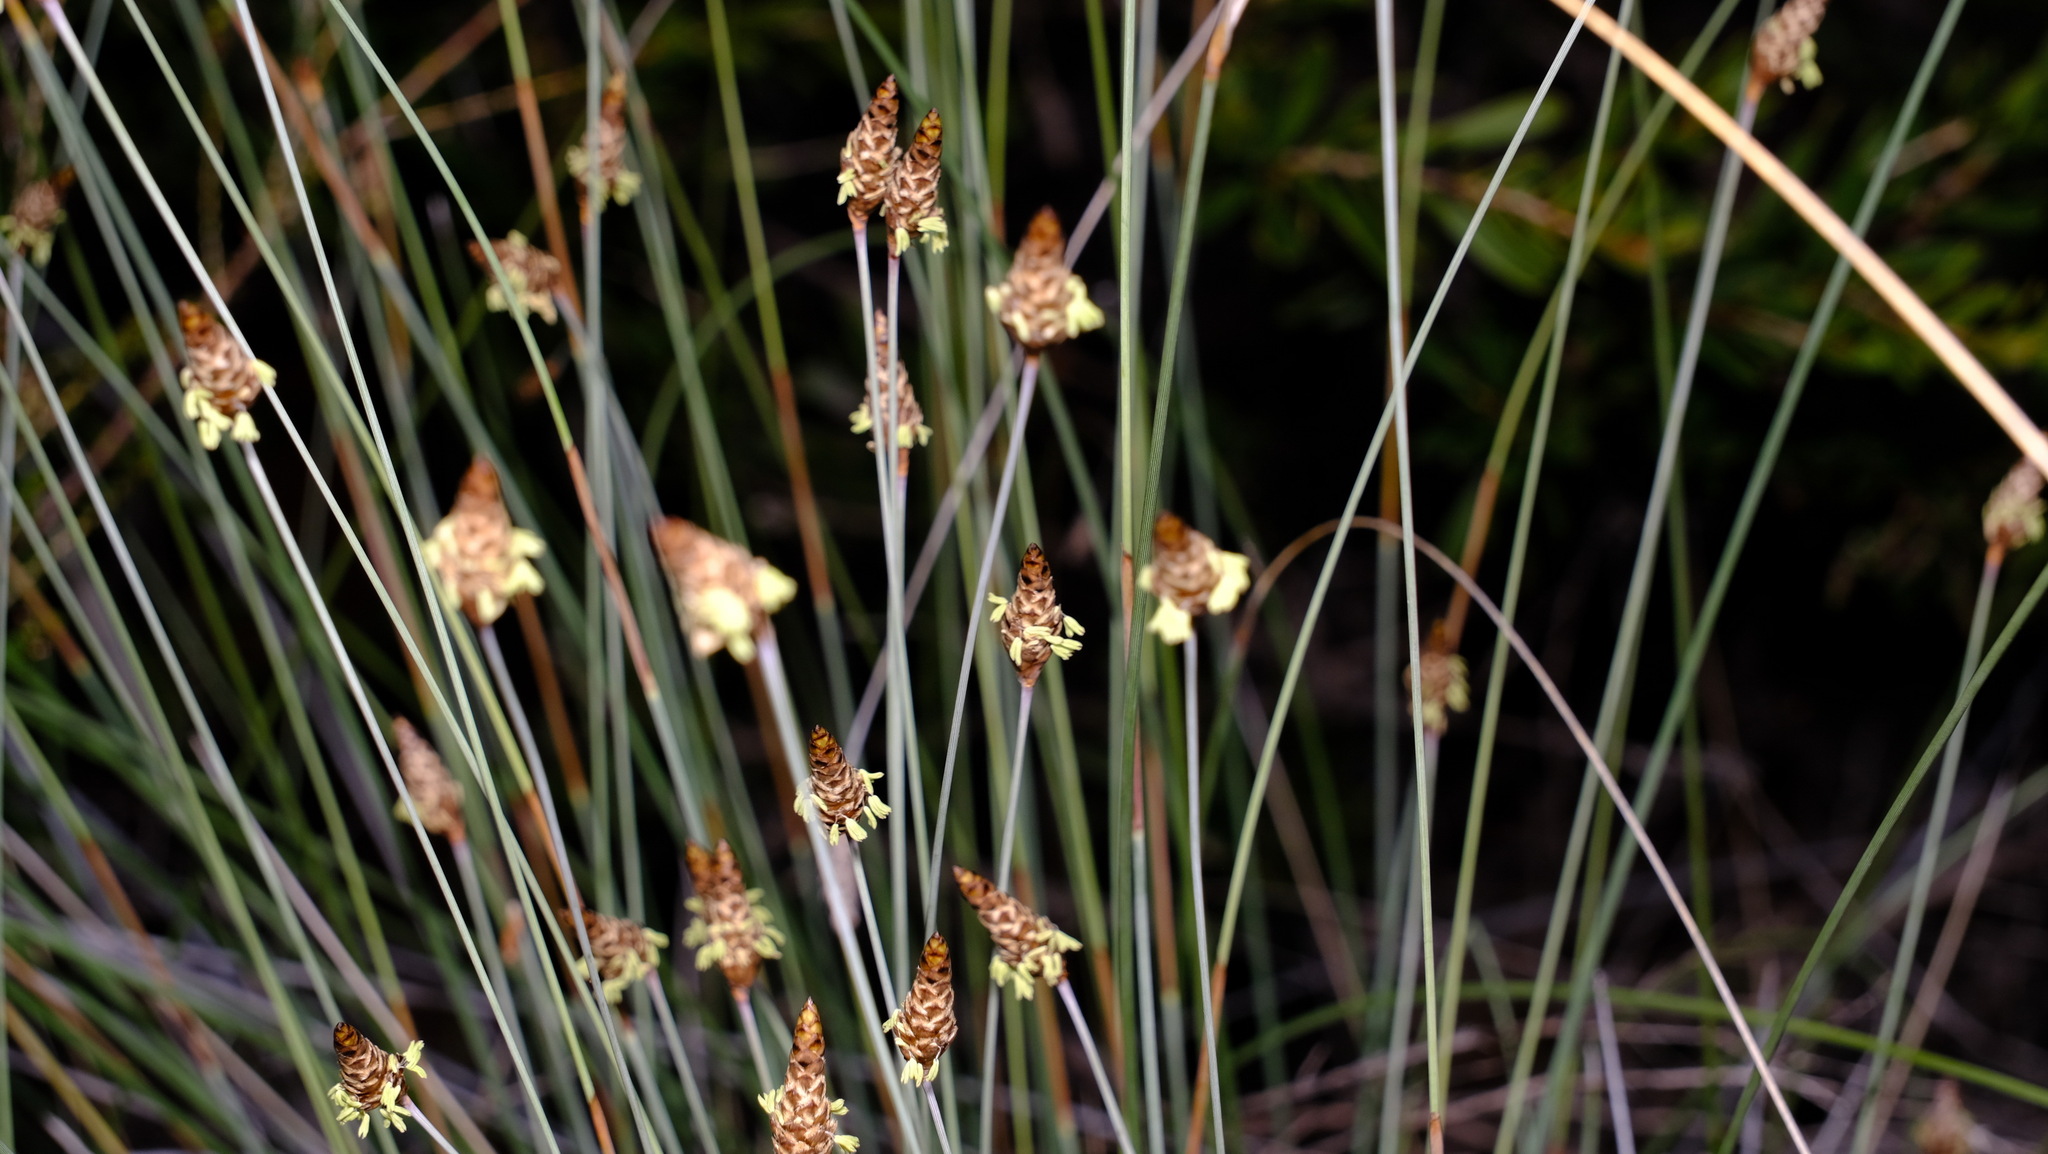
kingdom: Plantae
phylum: Tracheophyta
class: Liliopsida
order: Poales
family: Ecdeiocoleaceae
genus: Ecdeiocolea
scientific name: Ecdeiocolea monostachya
